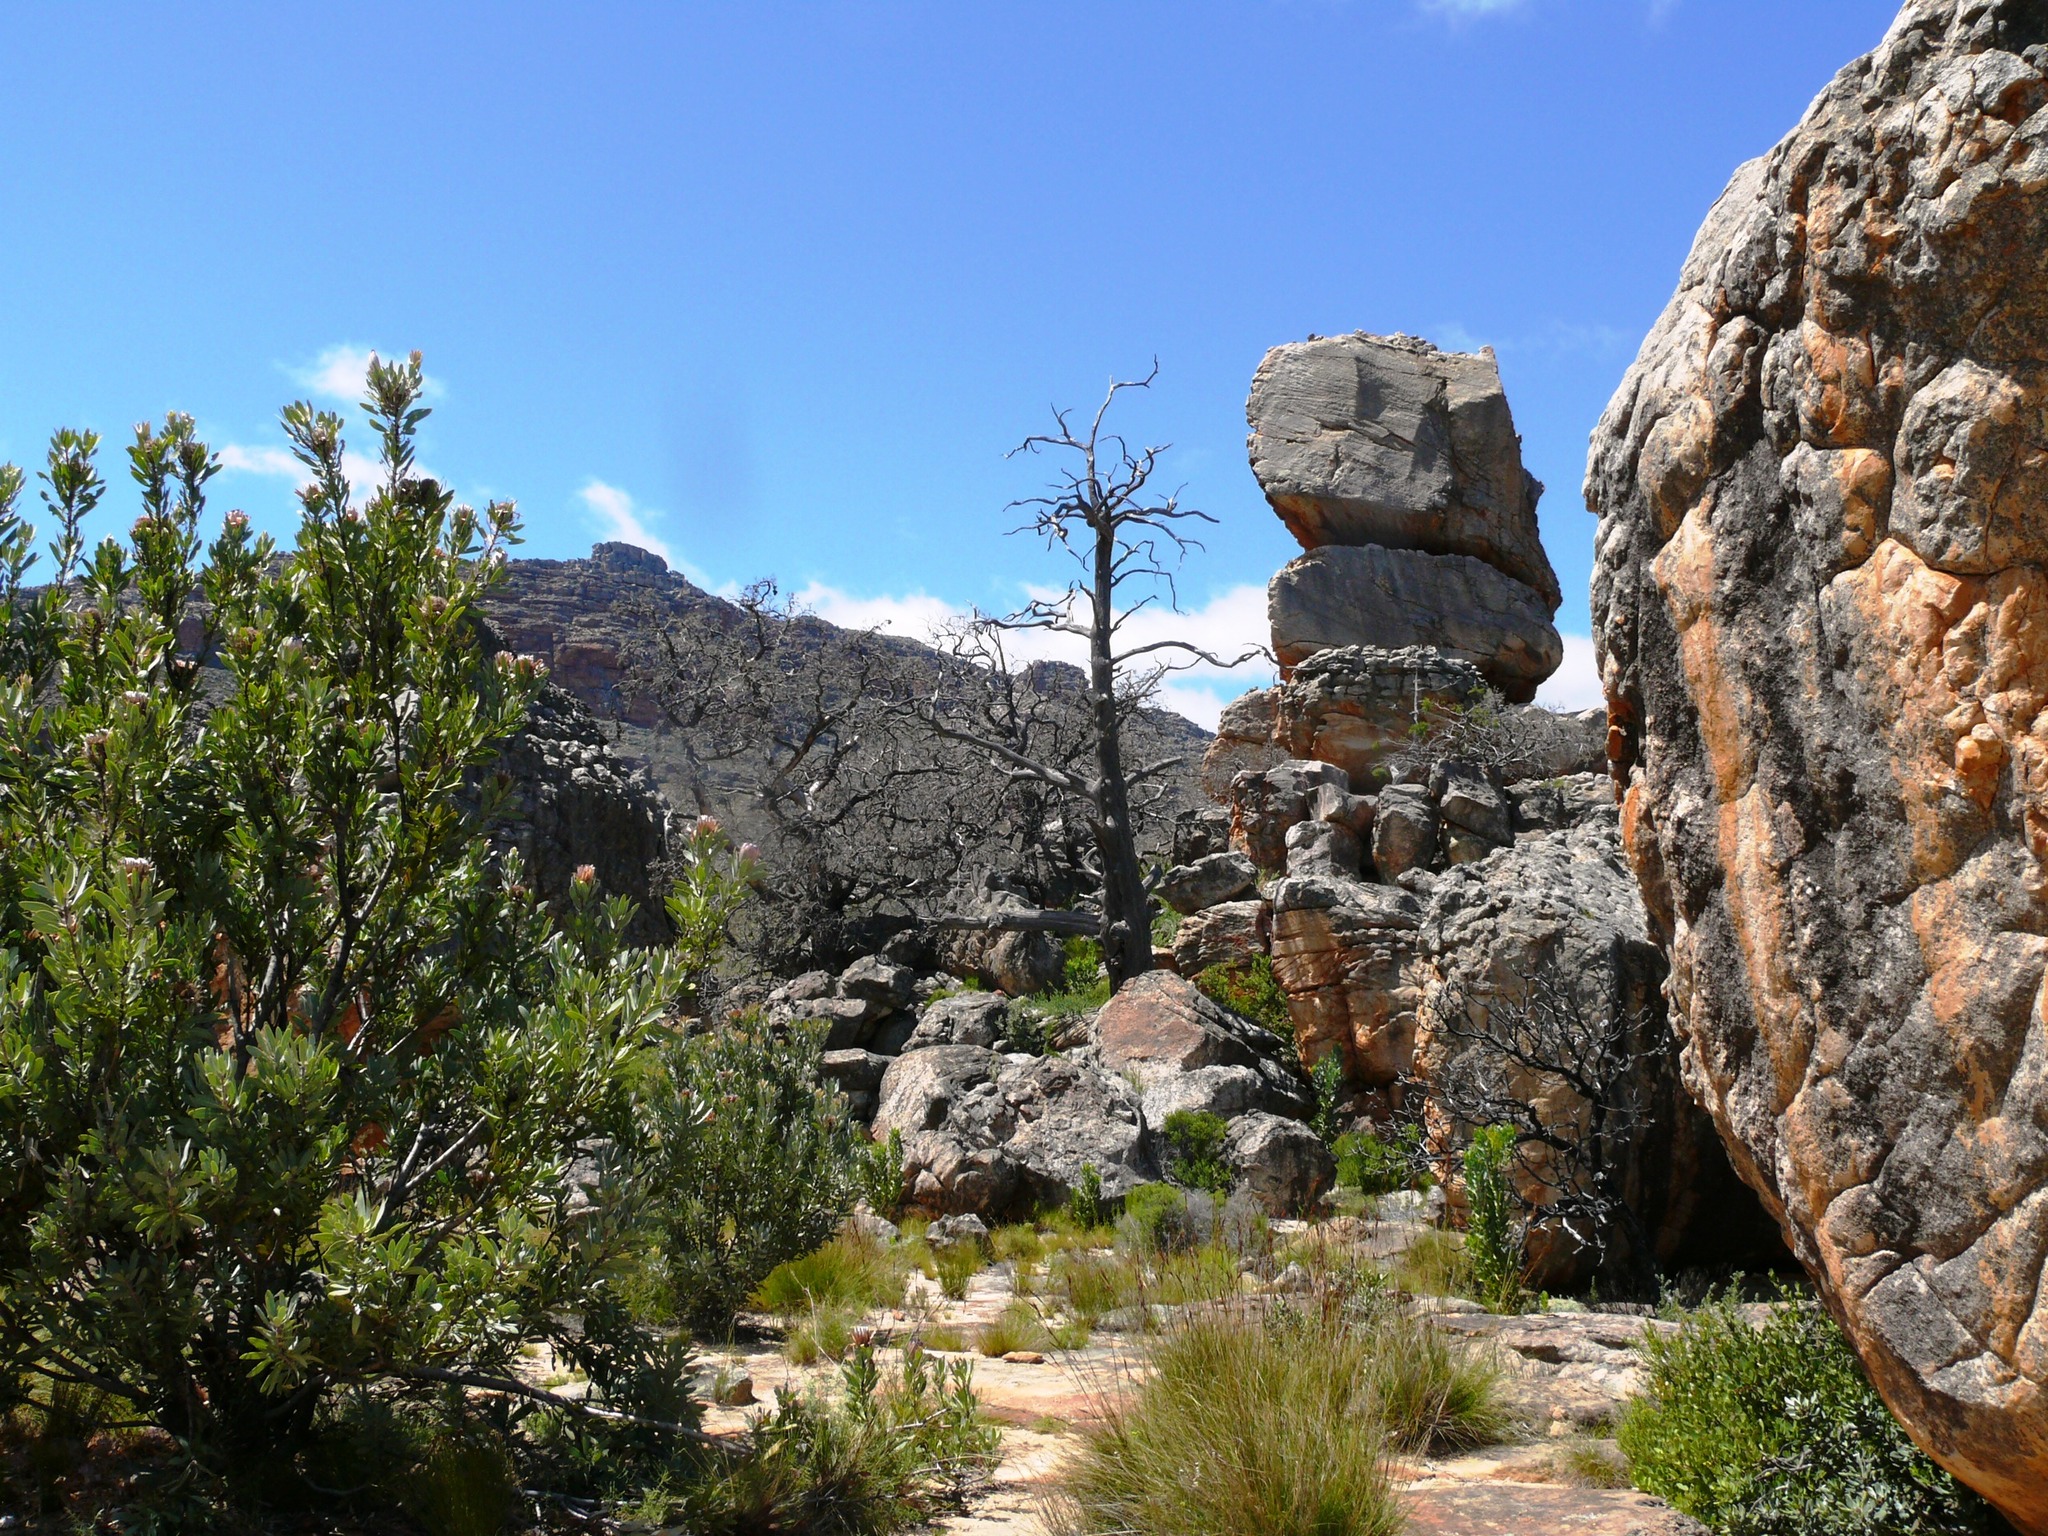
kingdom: Plantae
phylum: Tracheophyta
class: Pinopsida
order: Pinales
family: Cupressaceae
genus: Widdringtonia
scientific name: Widdringtonia nodiflora
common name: Cape cypress
